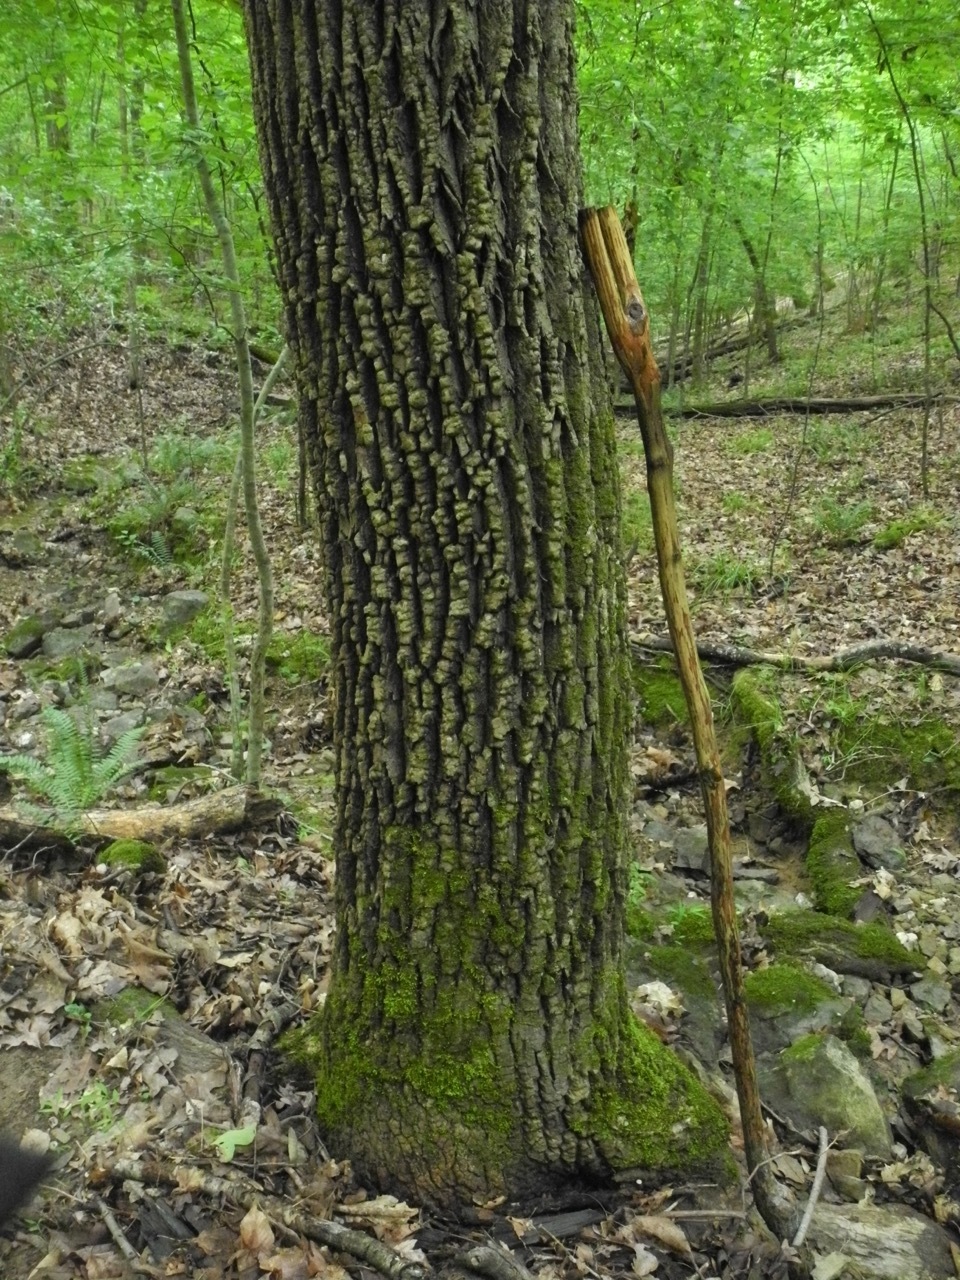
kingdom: Plantae
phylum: Tracheophyta
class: Magnoliopsida
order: Lamiales
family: Oleaceae
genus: Fraxinus
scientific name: Fraxinus americana
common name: White ash
